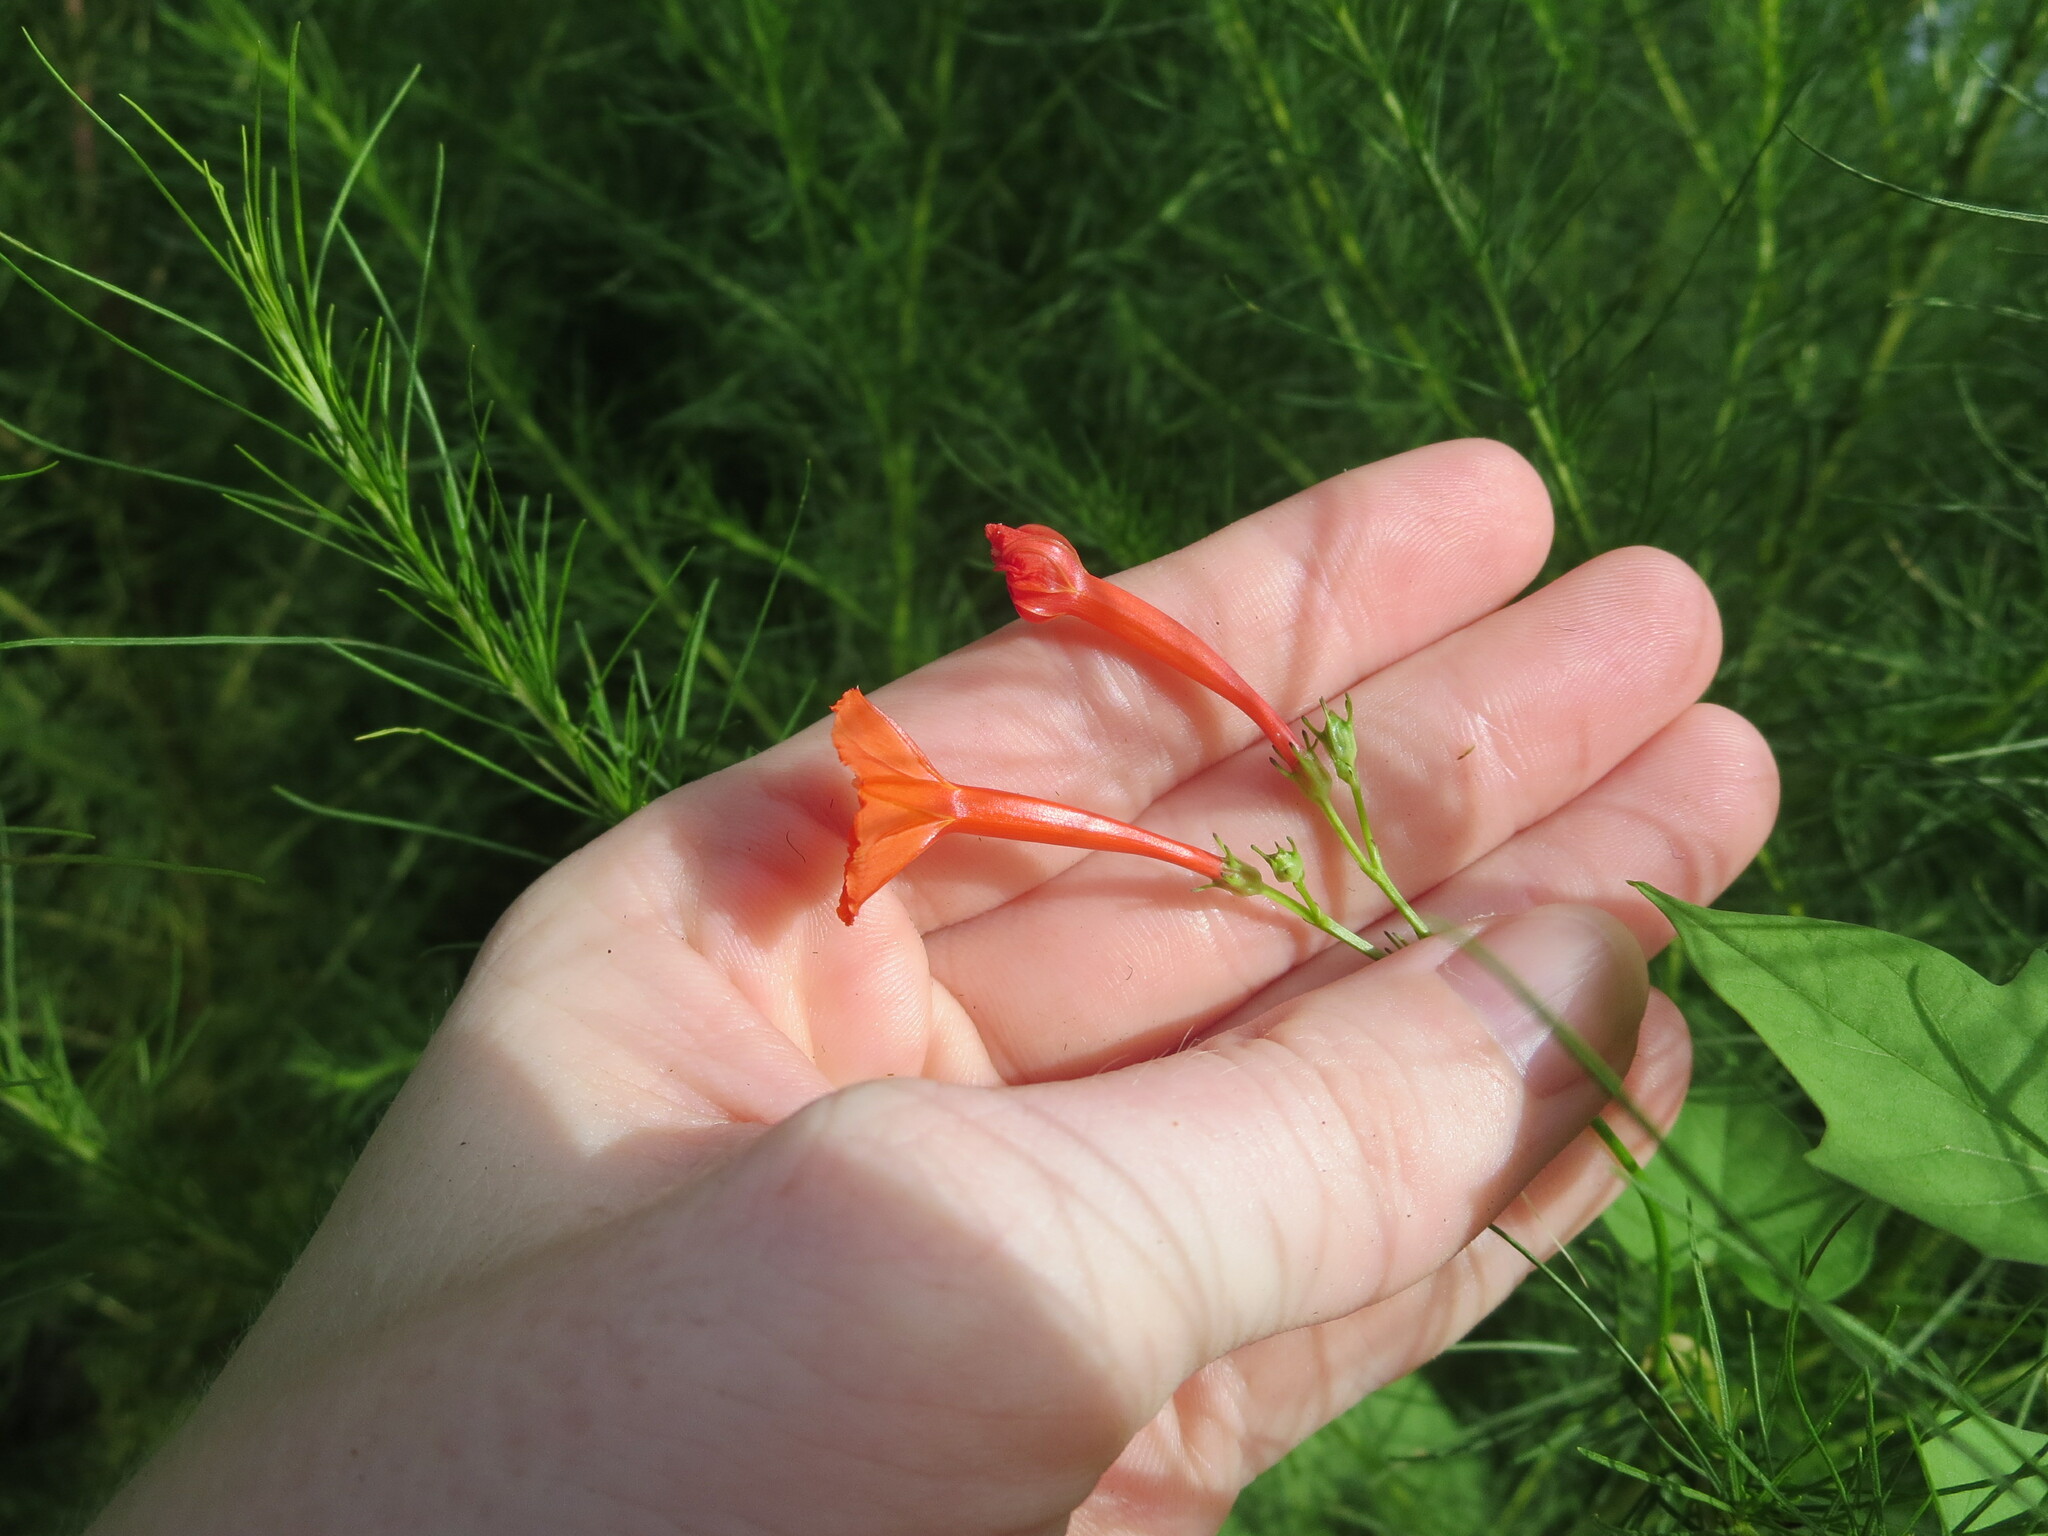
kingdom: Plantae
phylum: Tracheophyta
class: Magnoliopsida
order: Solanales
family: Convolvulaceae
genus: Ipomoea
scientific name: Ipomoea hederifolia
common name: Ivy-leaf morning-glory
